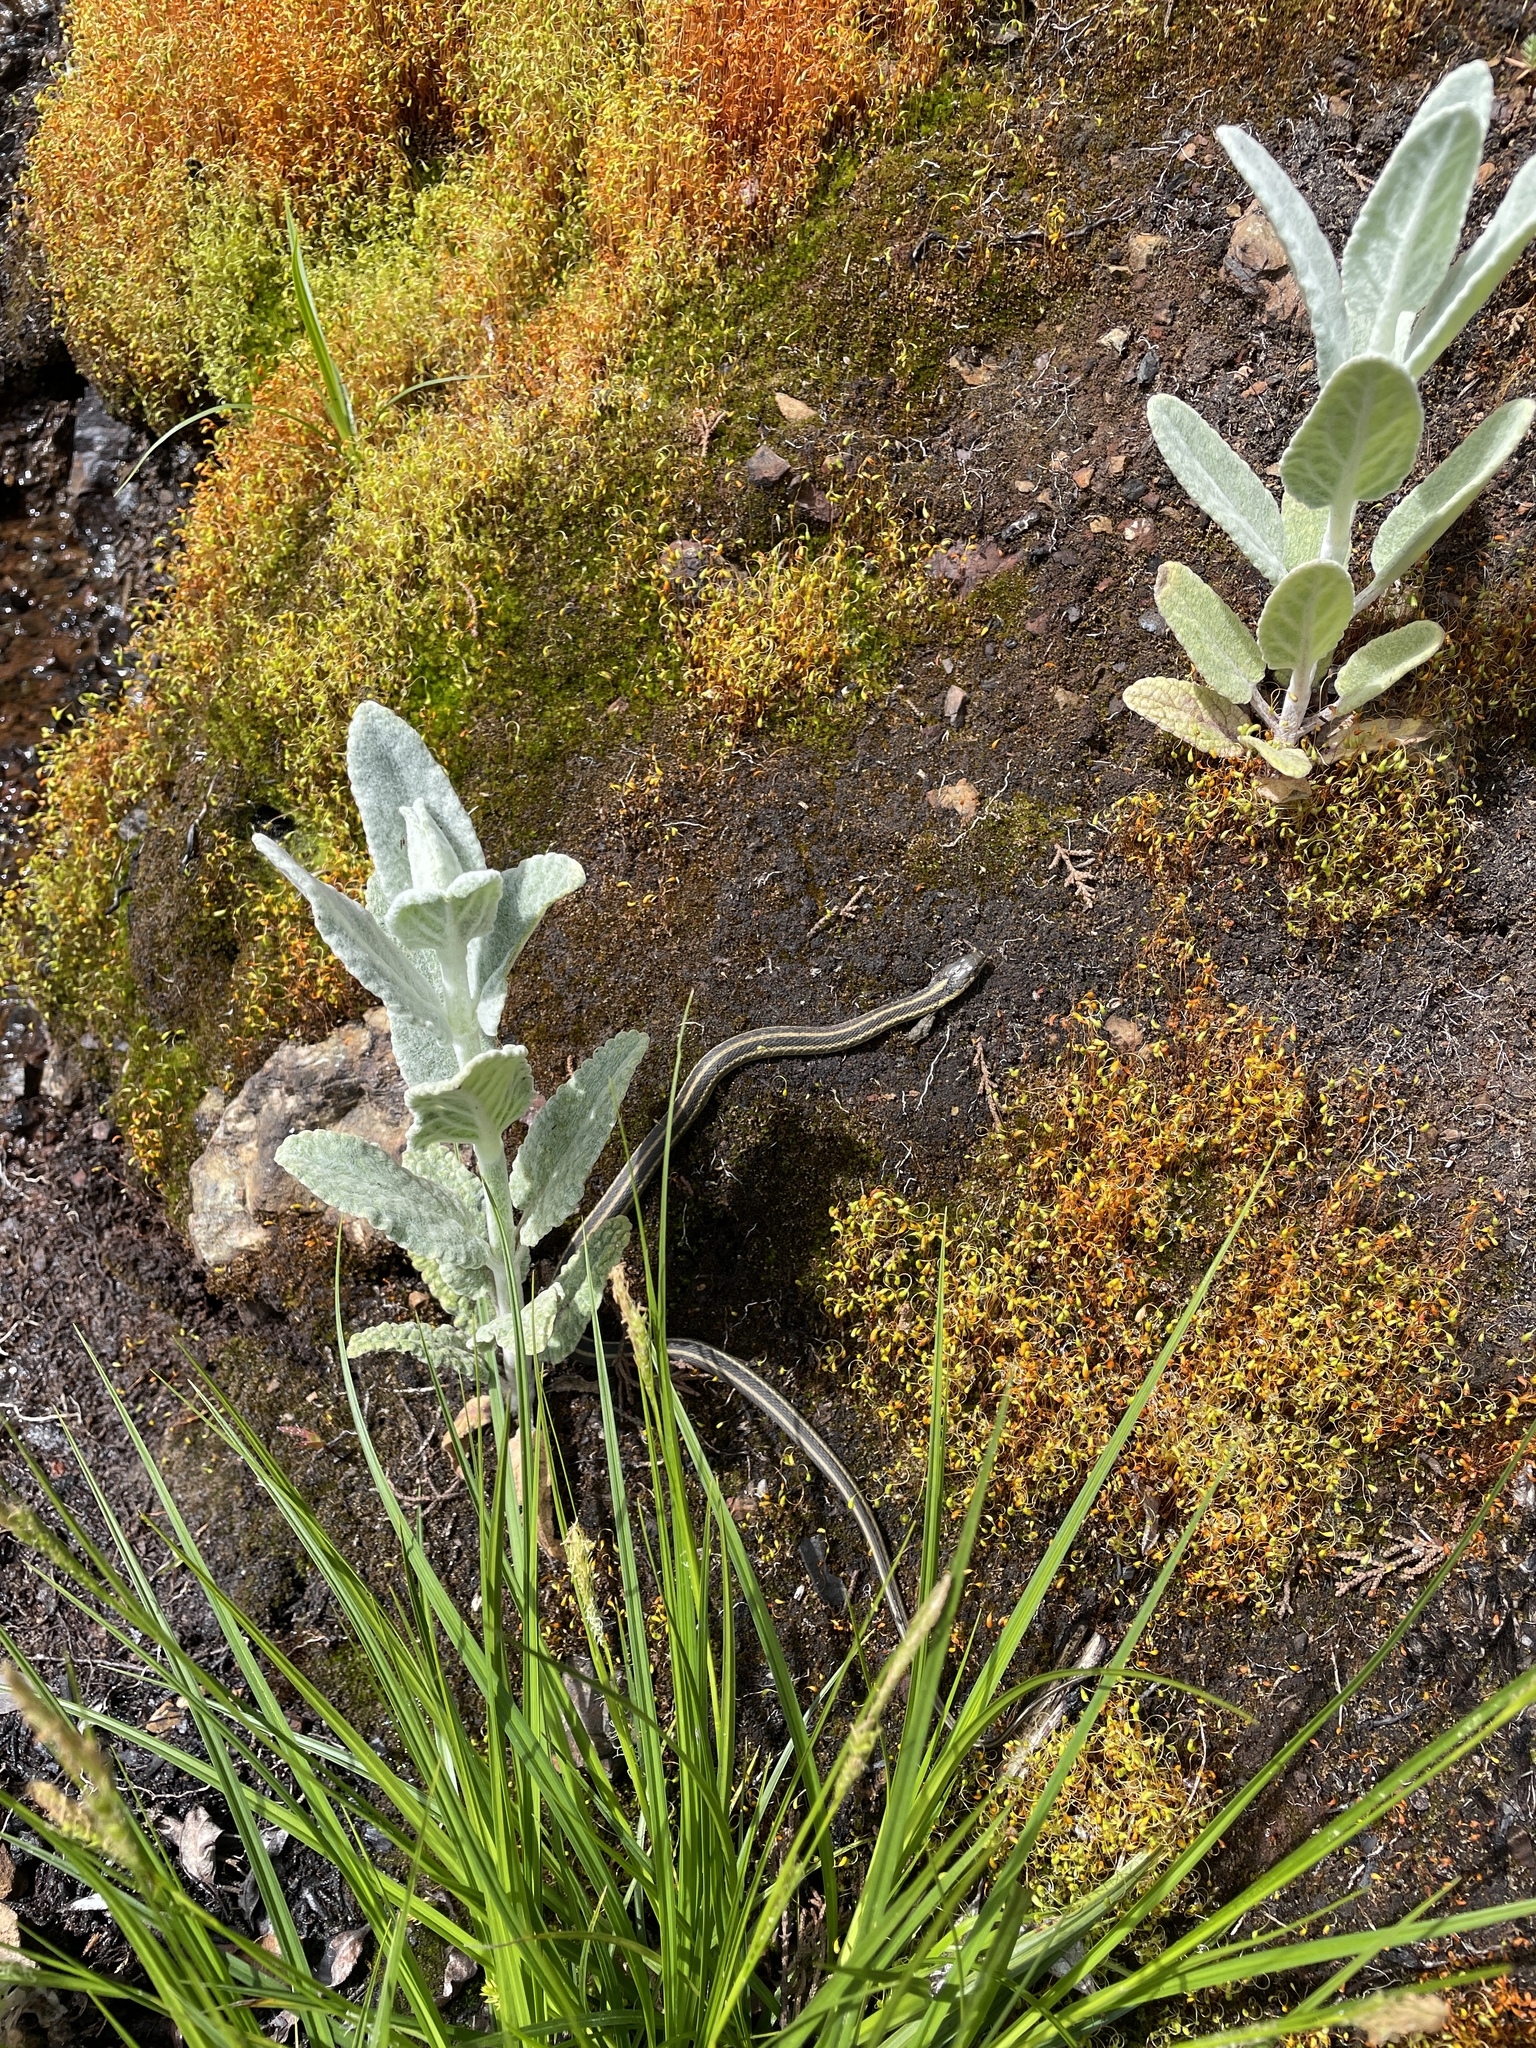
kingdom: Animalia
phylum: Chordata
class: Squamata
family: Colubridae
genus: Thamnophis
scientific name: Thamnophis atratus
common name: Pacific coast aquatic garter snake
